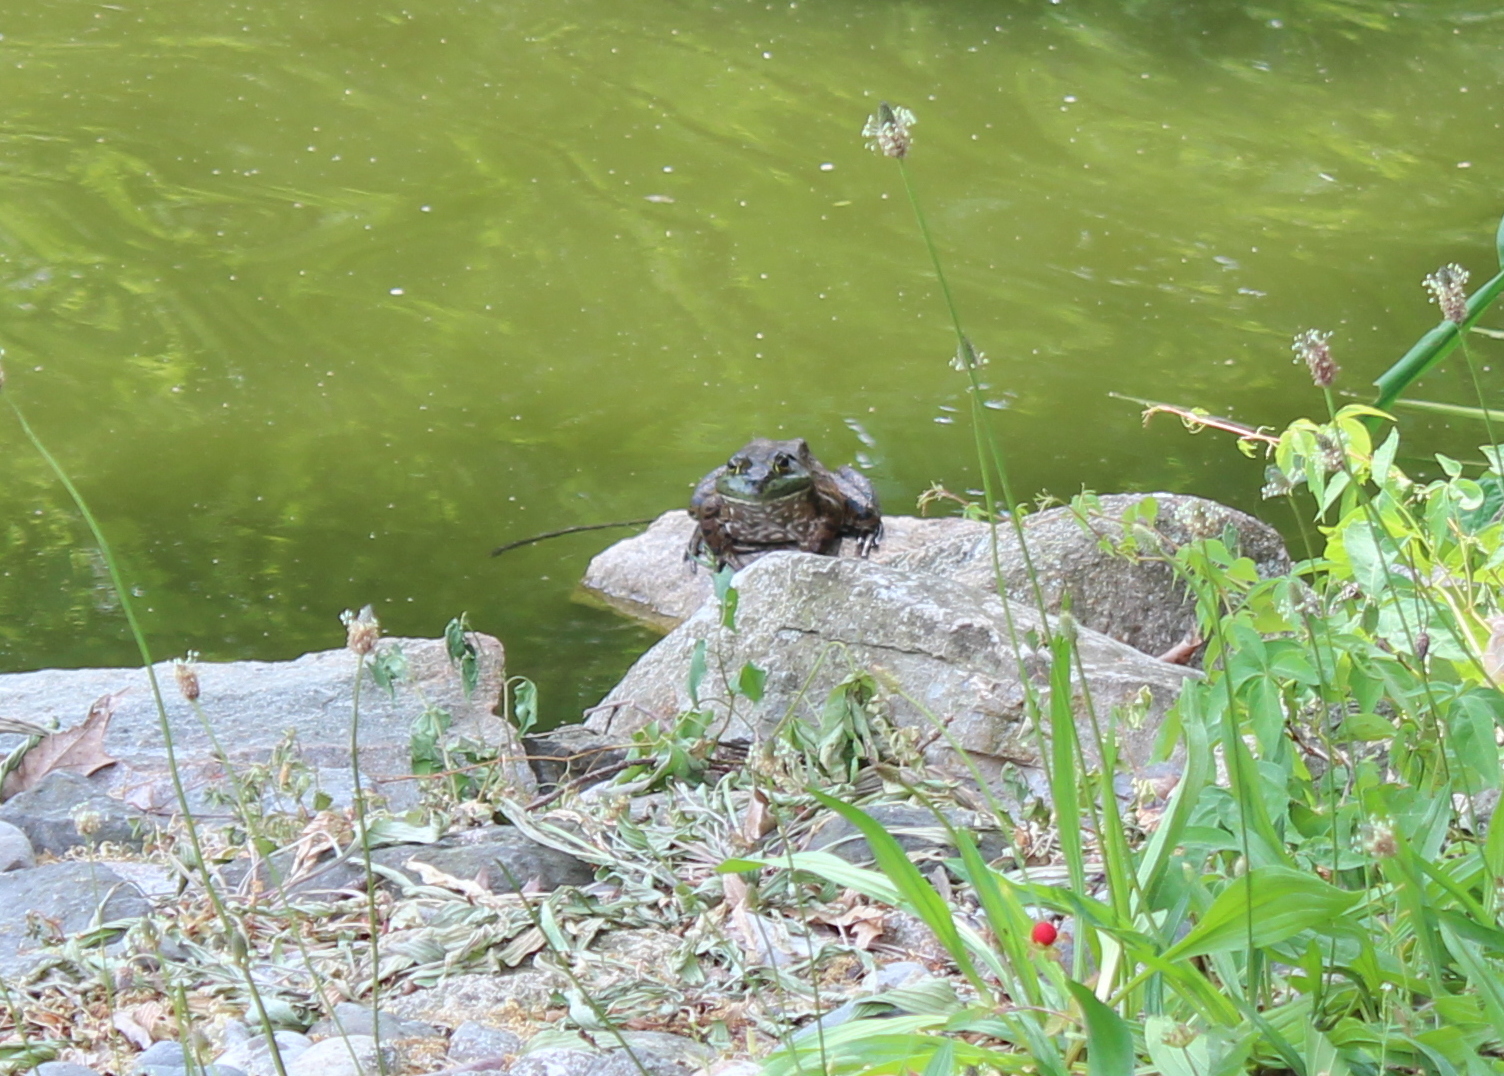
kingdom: Animalia
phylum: Chordata
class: Amphibia
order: Anura
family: Ranidae
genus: Lithobates
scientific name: Lithobates catesbeianus
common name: American bullfrog
